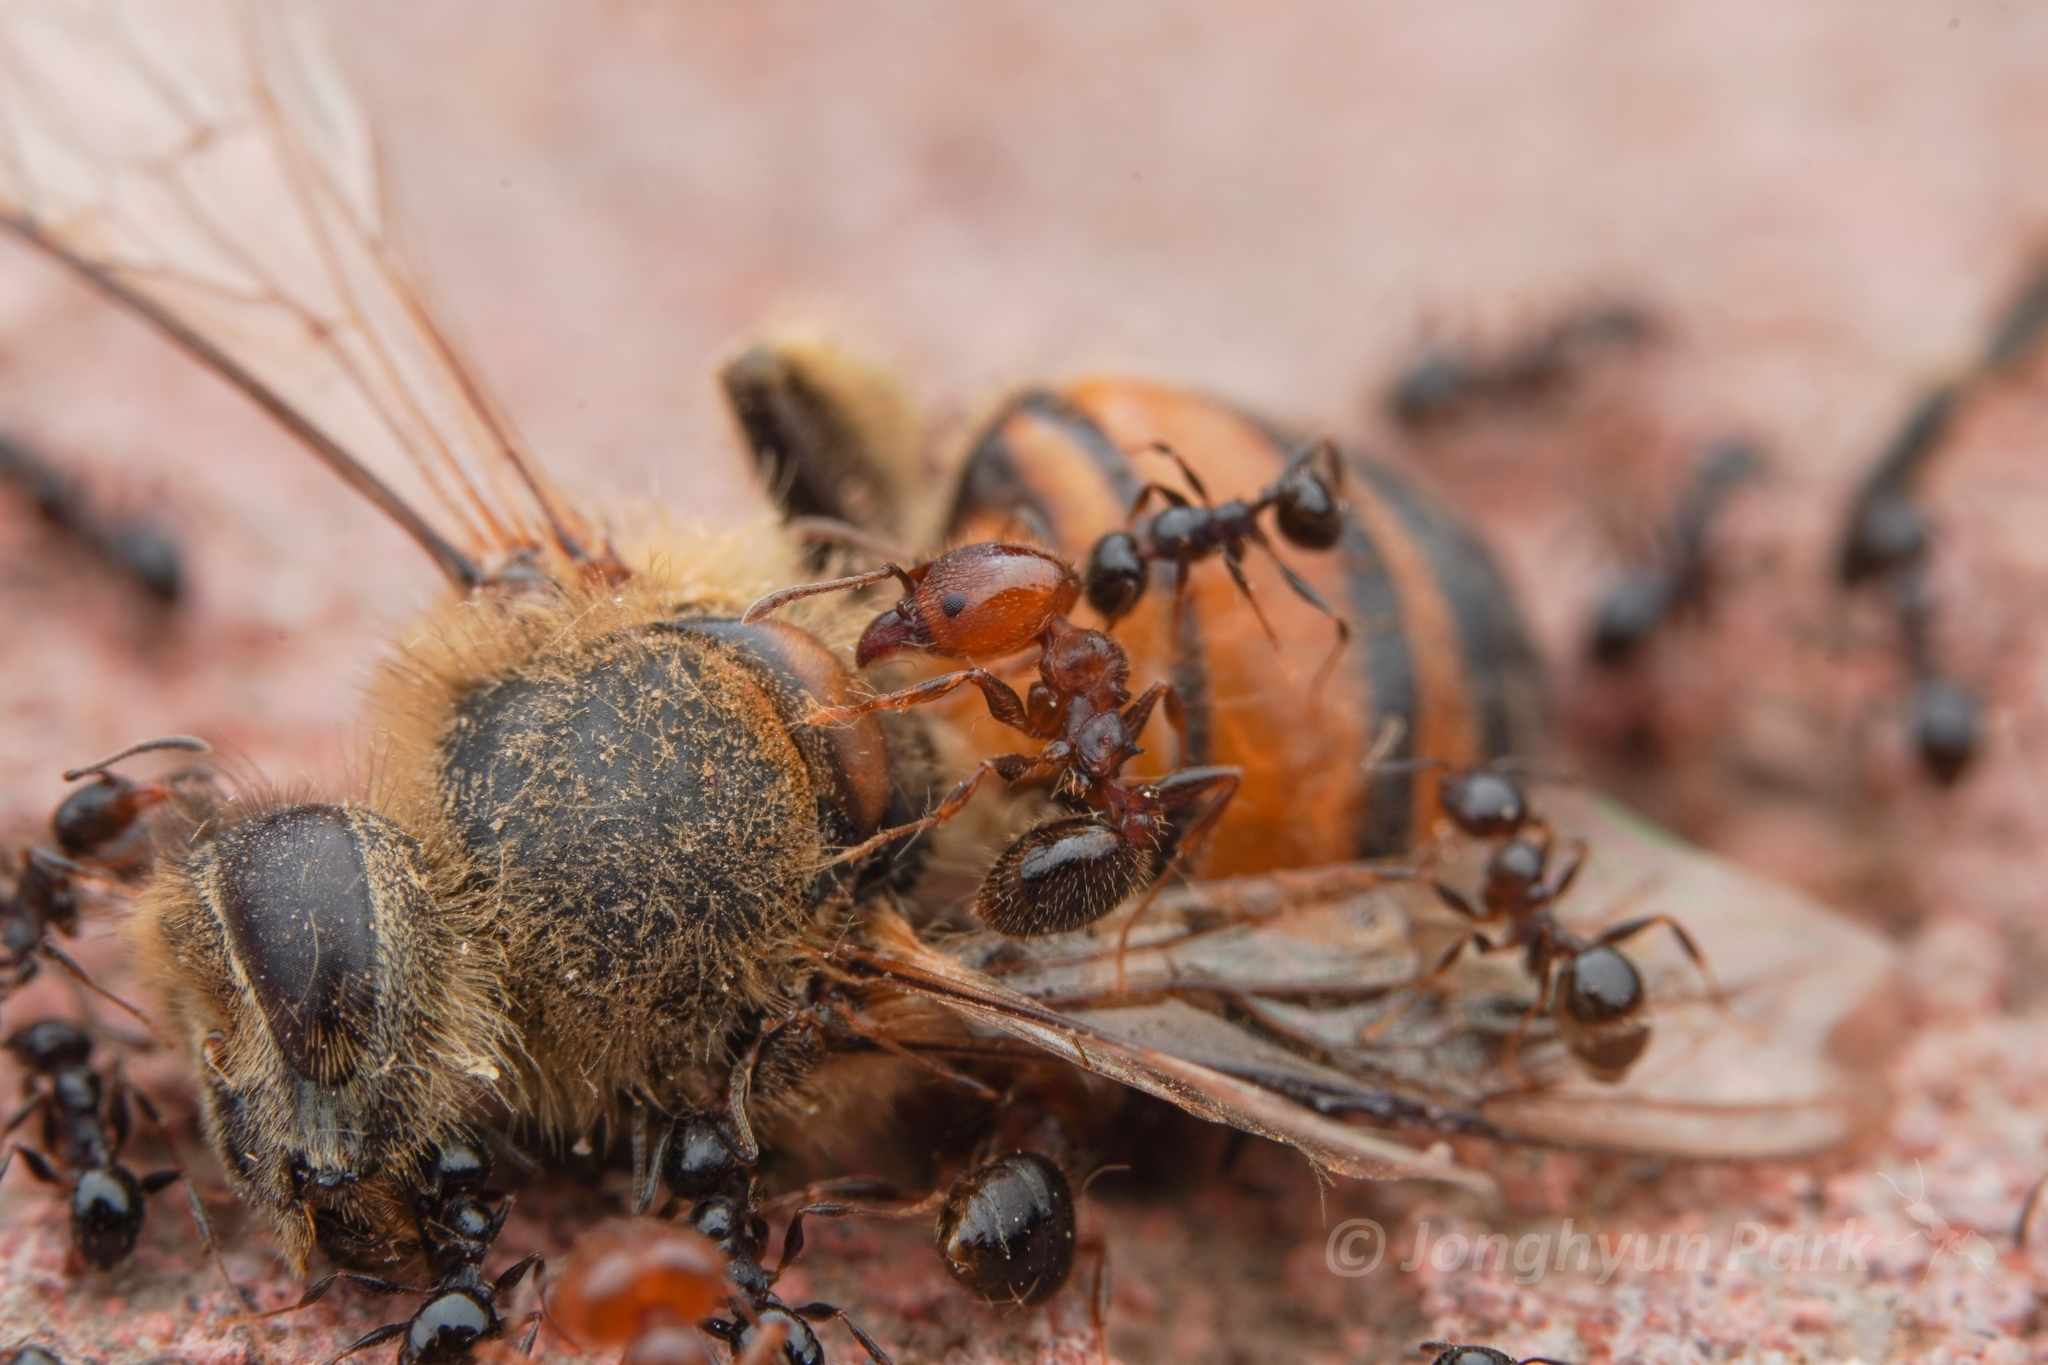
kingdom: Animalia
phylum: Arthropoda
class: Insecta
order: Hymenoptera
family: Formicidae
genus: Pheidole
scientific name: Pheidole tetra
